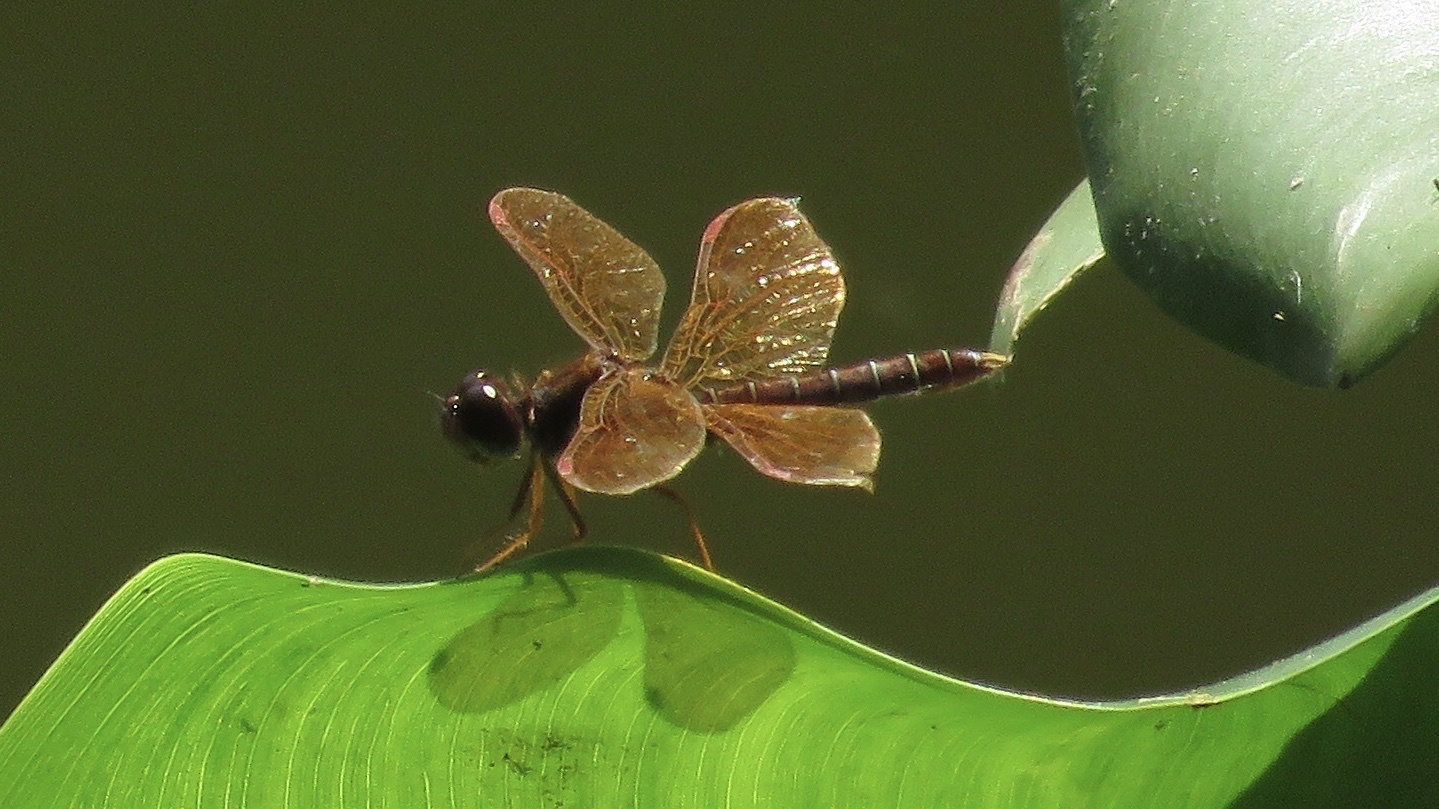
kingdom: Animalia
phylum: Arthropoda
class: Insecta
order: Odonata
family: Libellulidae
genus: Perithemis
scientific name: Perithemis tenera
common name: Eastern amberwing
